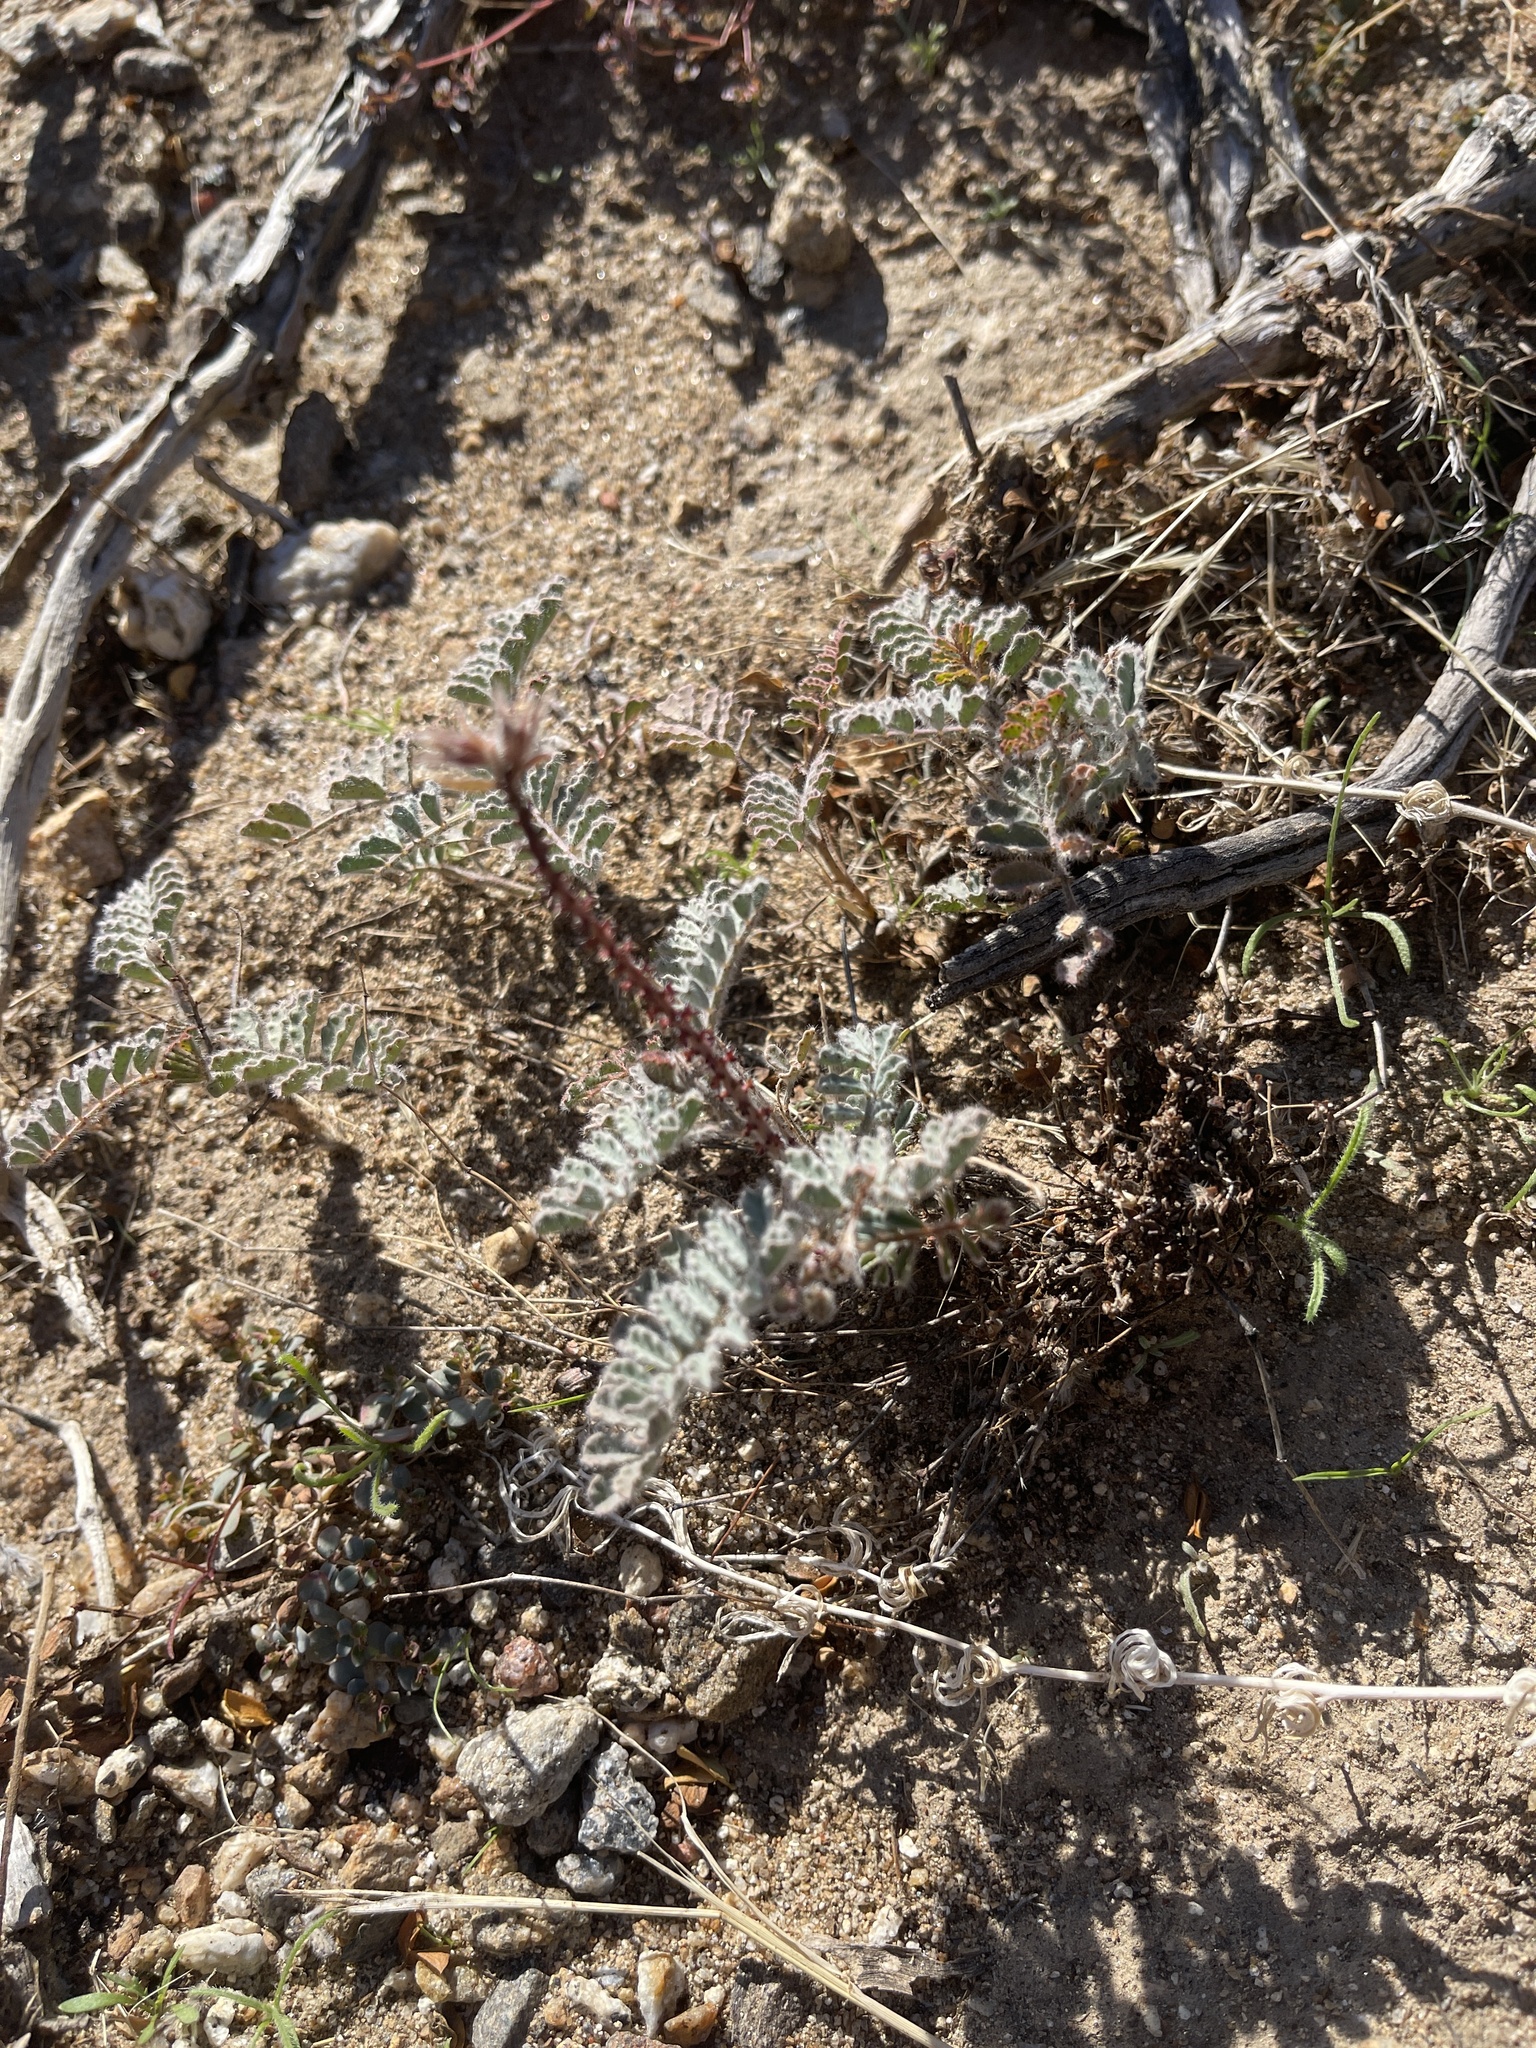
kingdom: Plantae
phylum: Tracheophyta
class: Magnoliopsida
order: Fabales
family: Fabaceae
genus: Dalea
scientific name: Dalea mollissima
